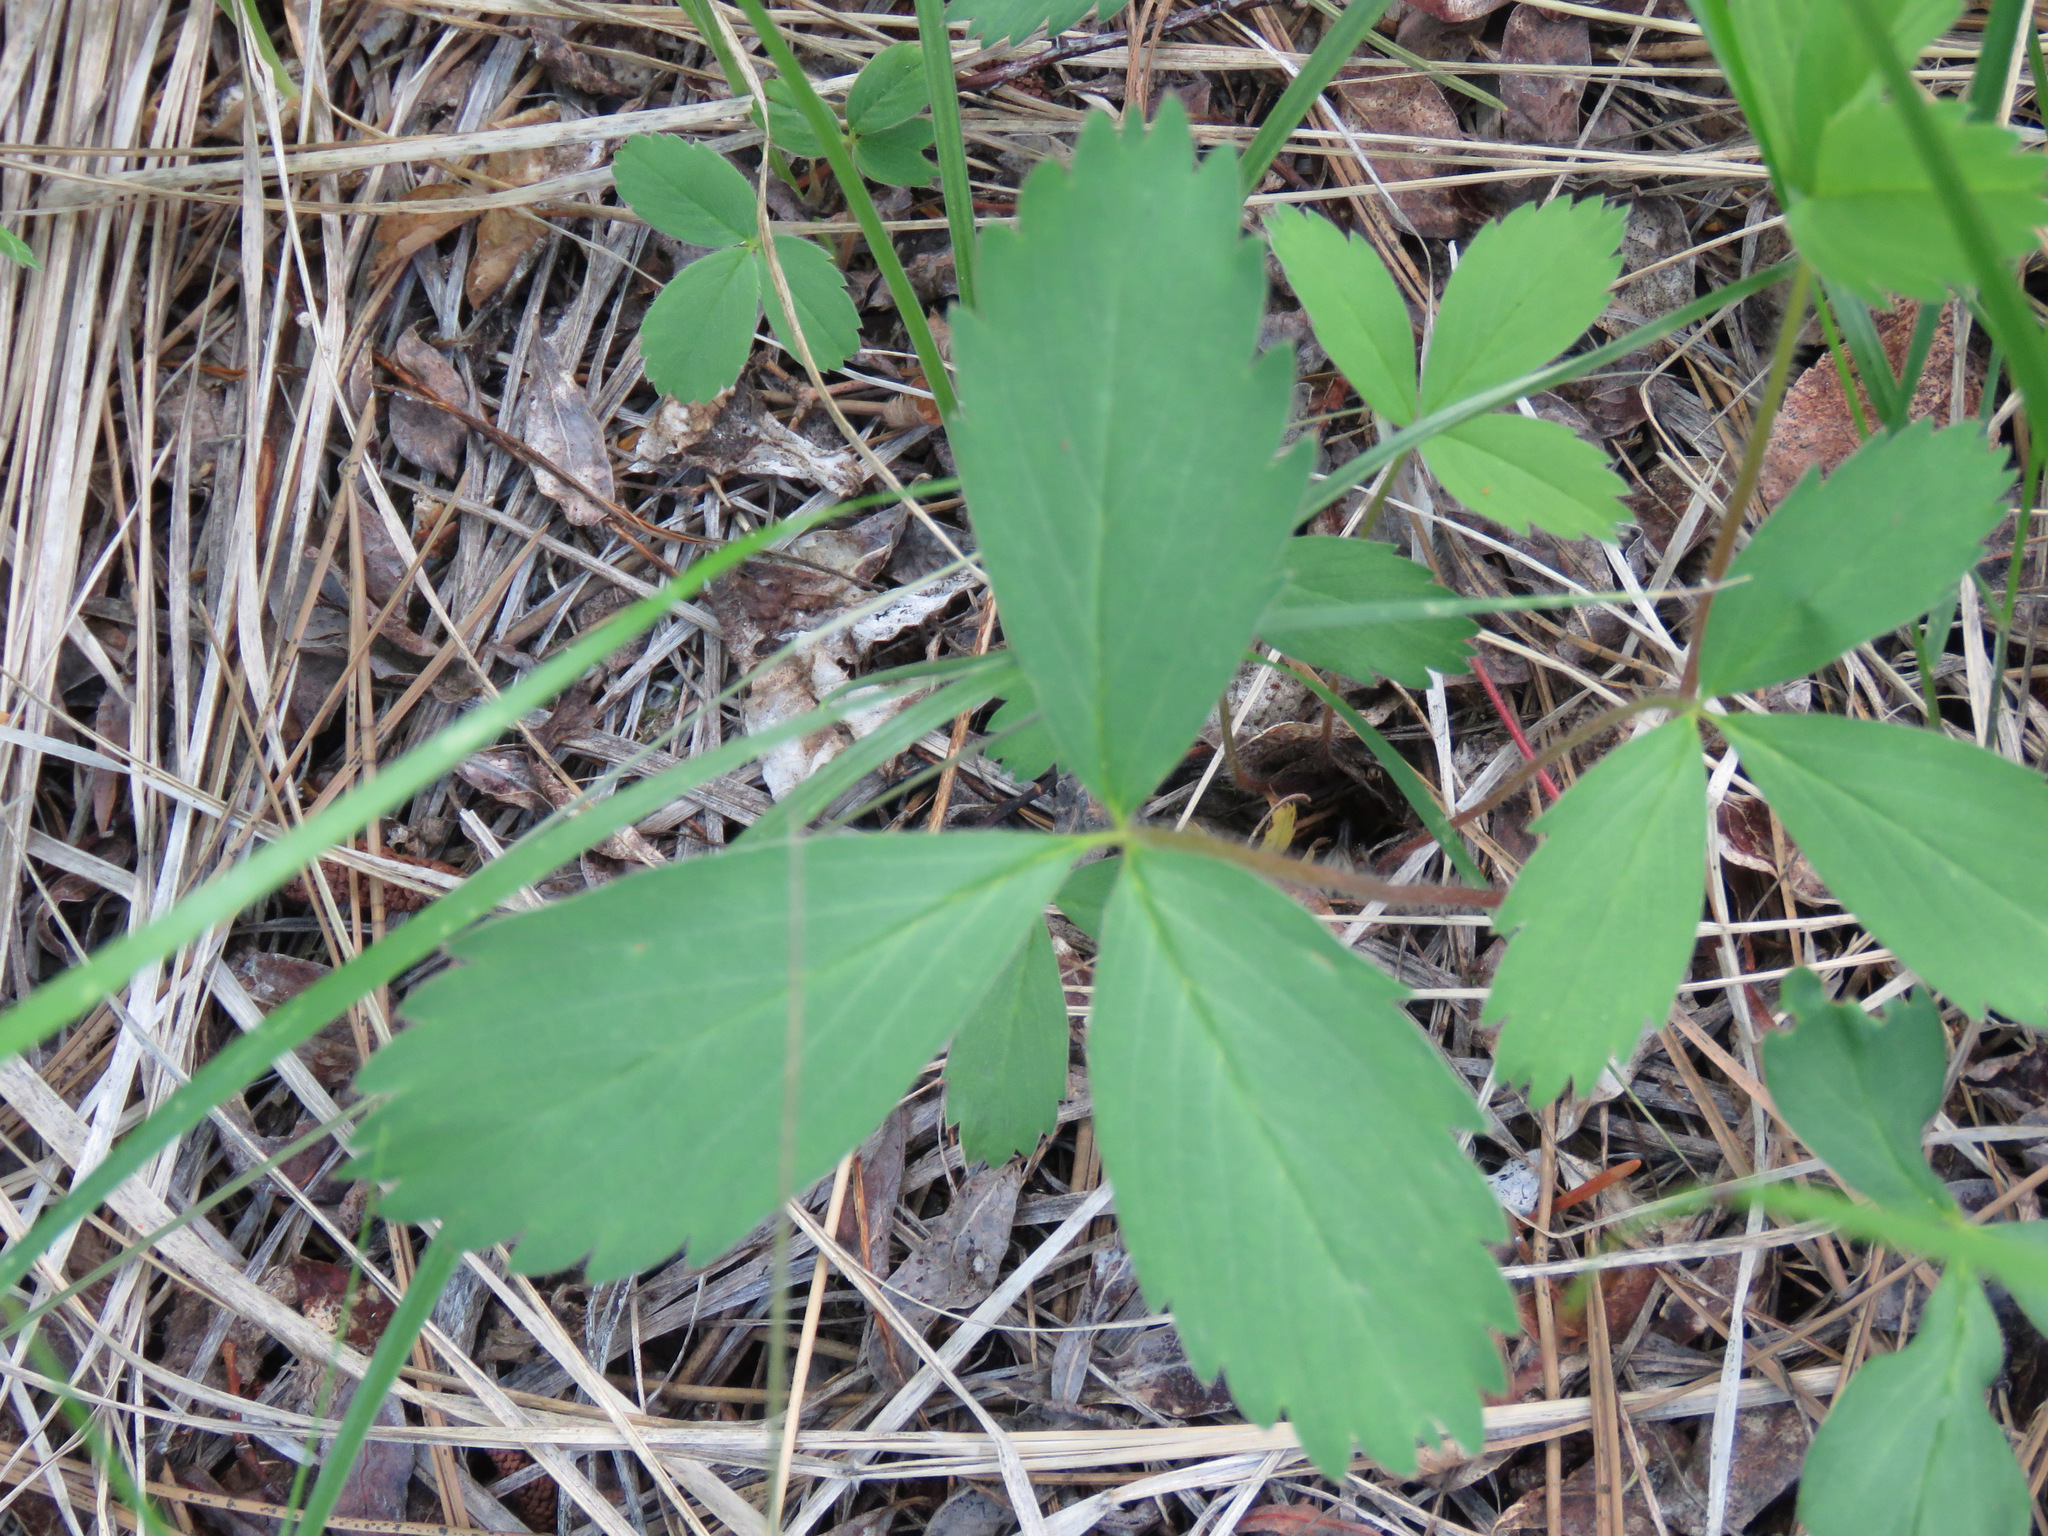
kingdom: Plantae
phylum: Tracheophyta
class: Magnoliopsida
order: Rosales
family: Rosaceae
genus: Fragaria
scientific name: Fragaria virginiana
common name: Thickleaved wild strawberry
